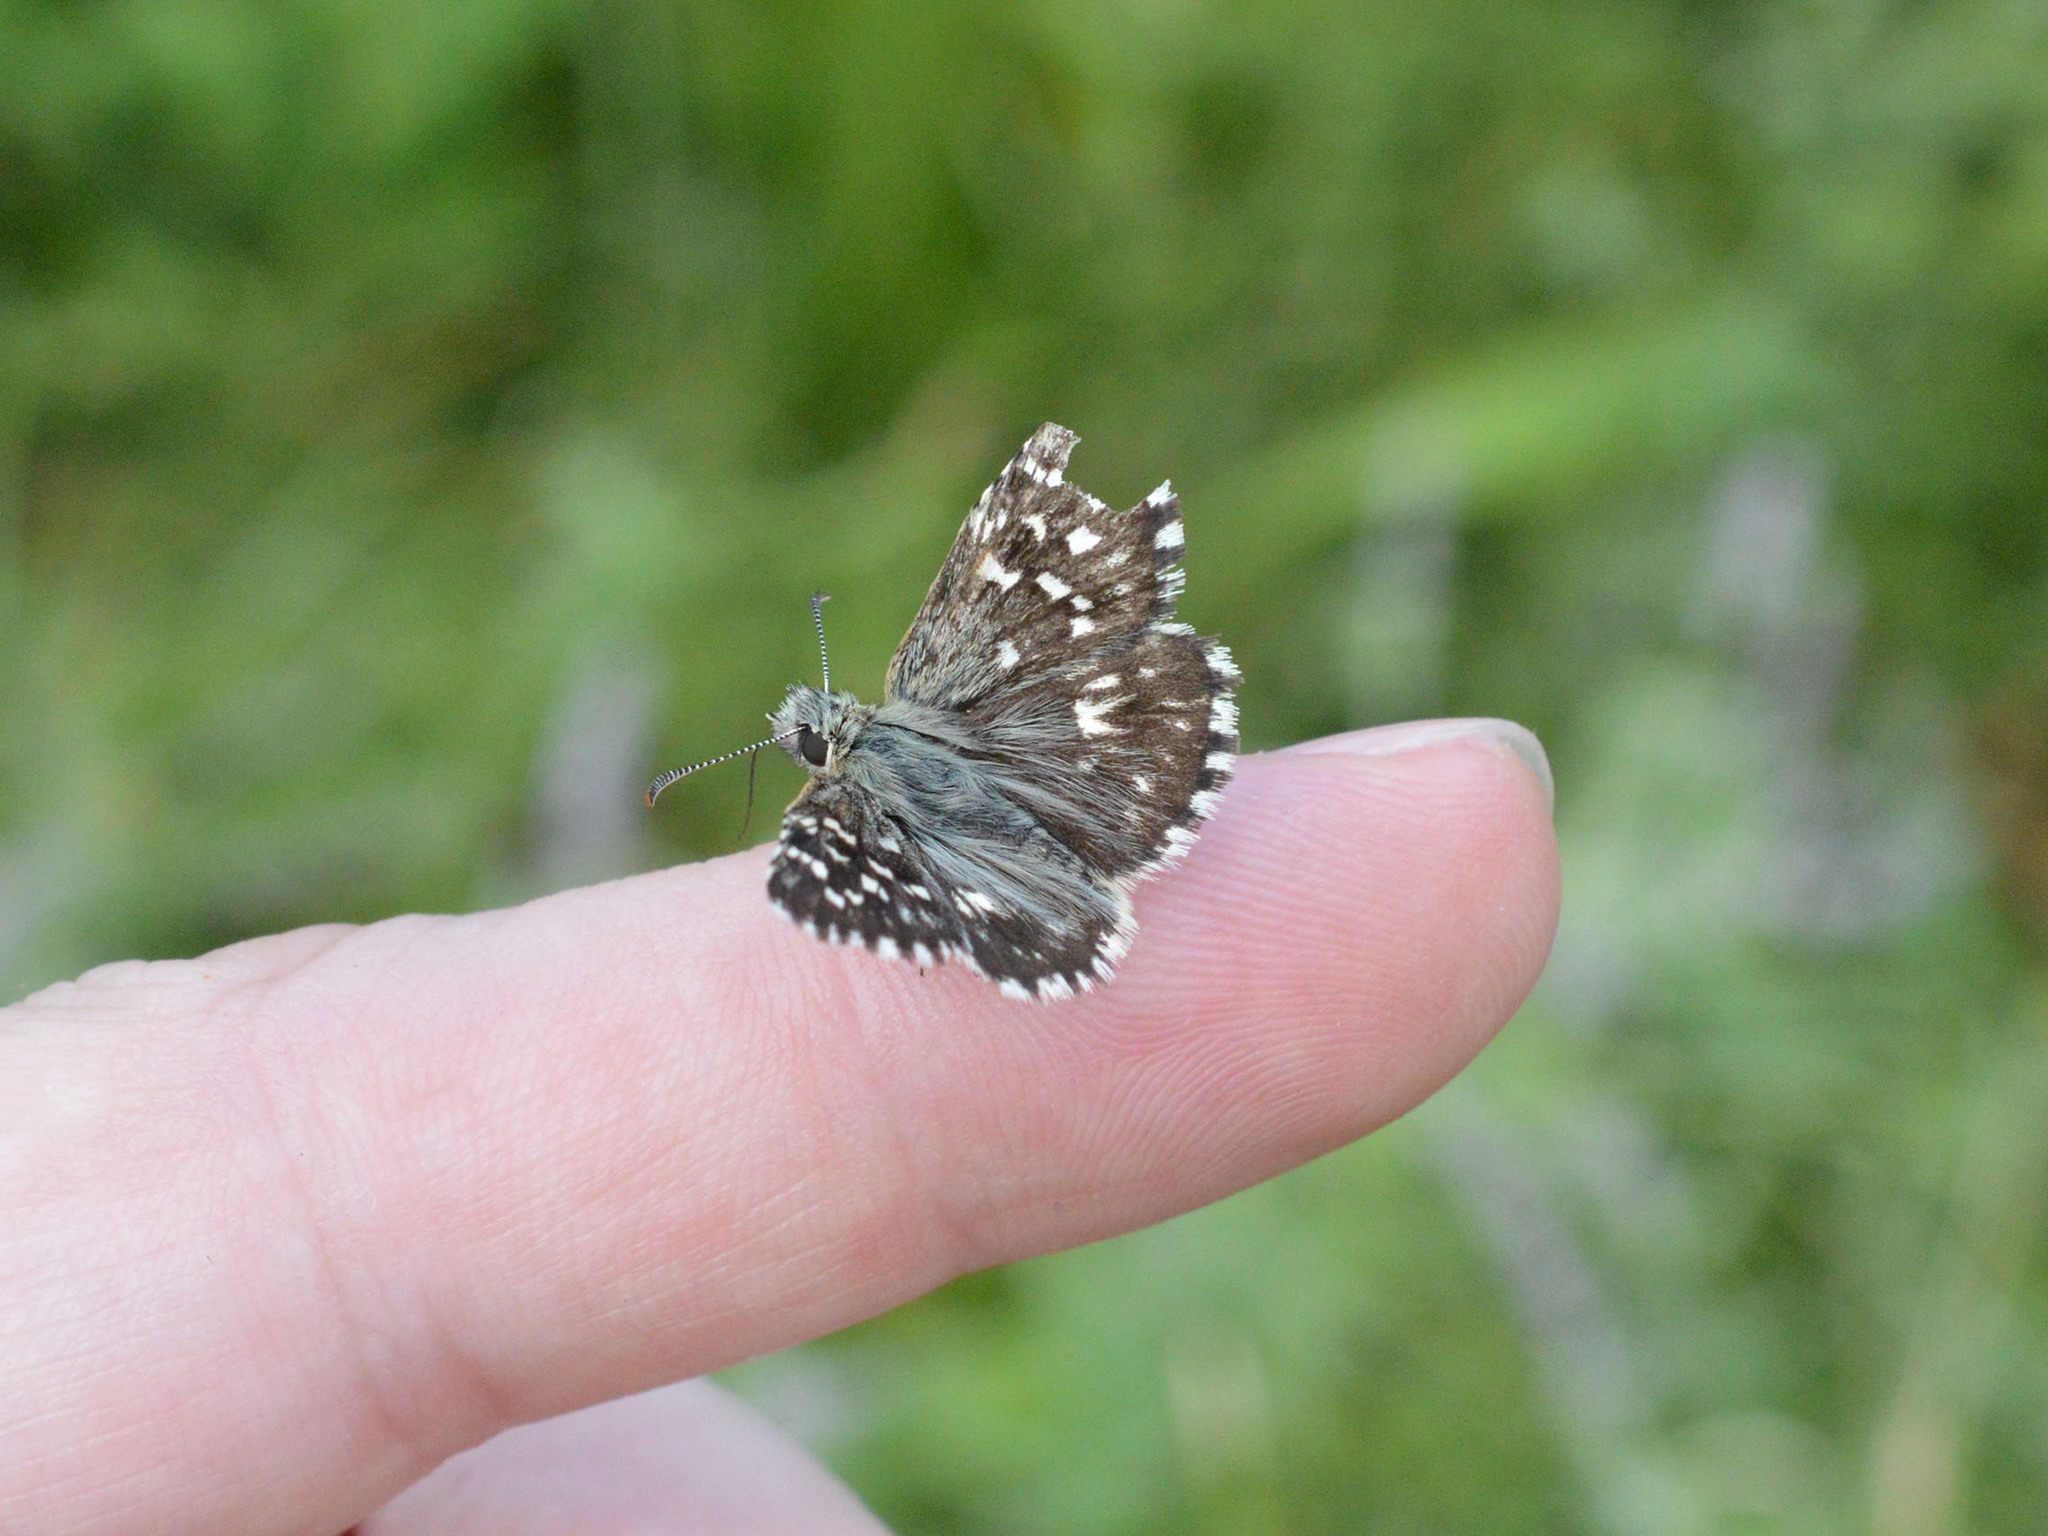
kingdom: Animalia
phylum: Arthropoda
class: Insecta
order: Lepidoptera
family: Hesperiidae
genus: Pyrgus
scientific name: Pyrgus malvae
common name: Grizzled skipper
